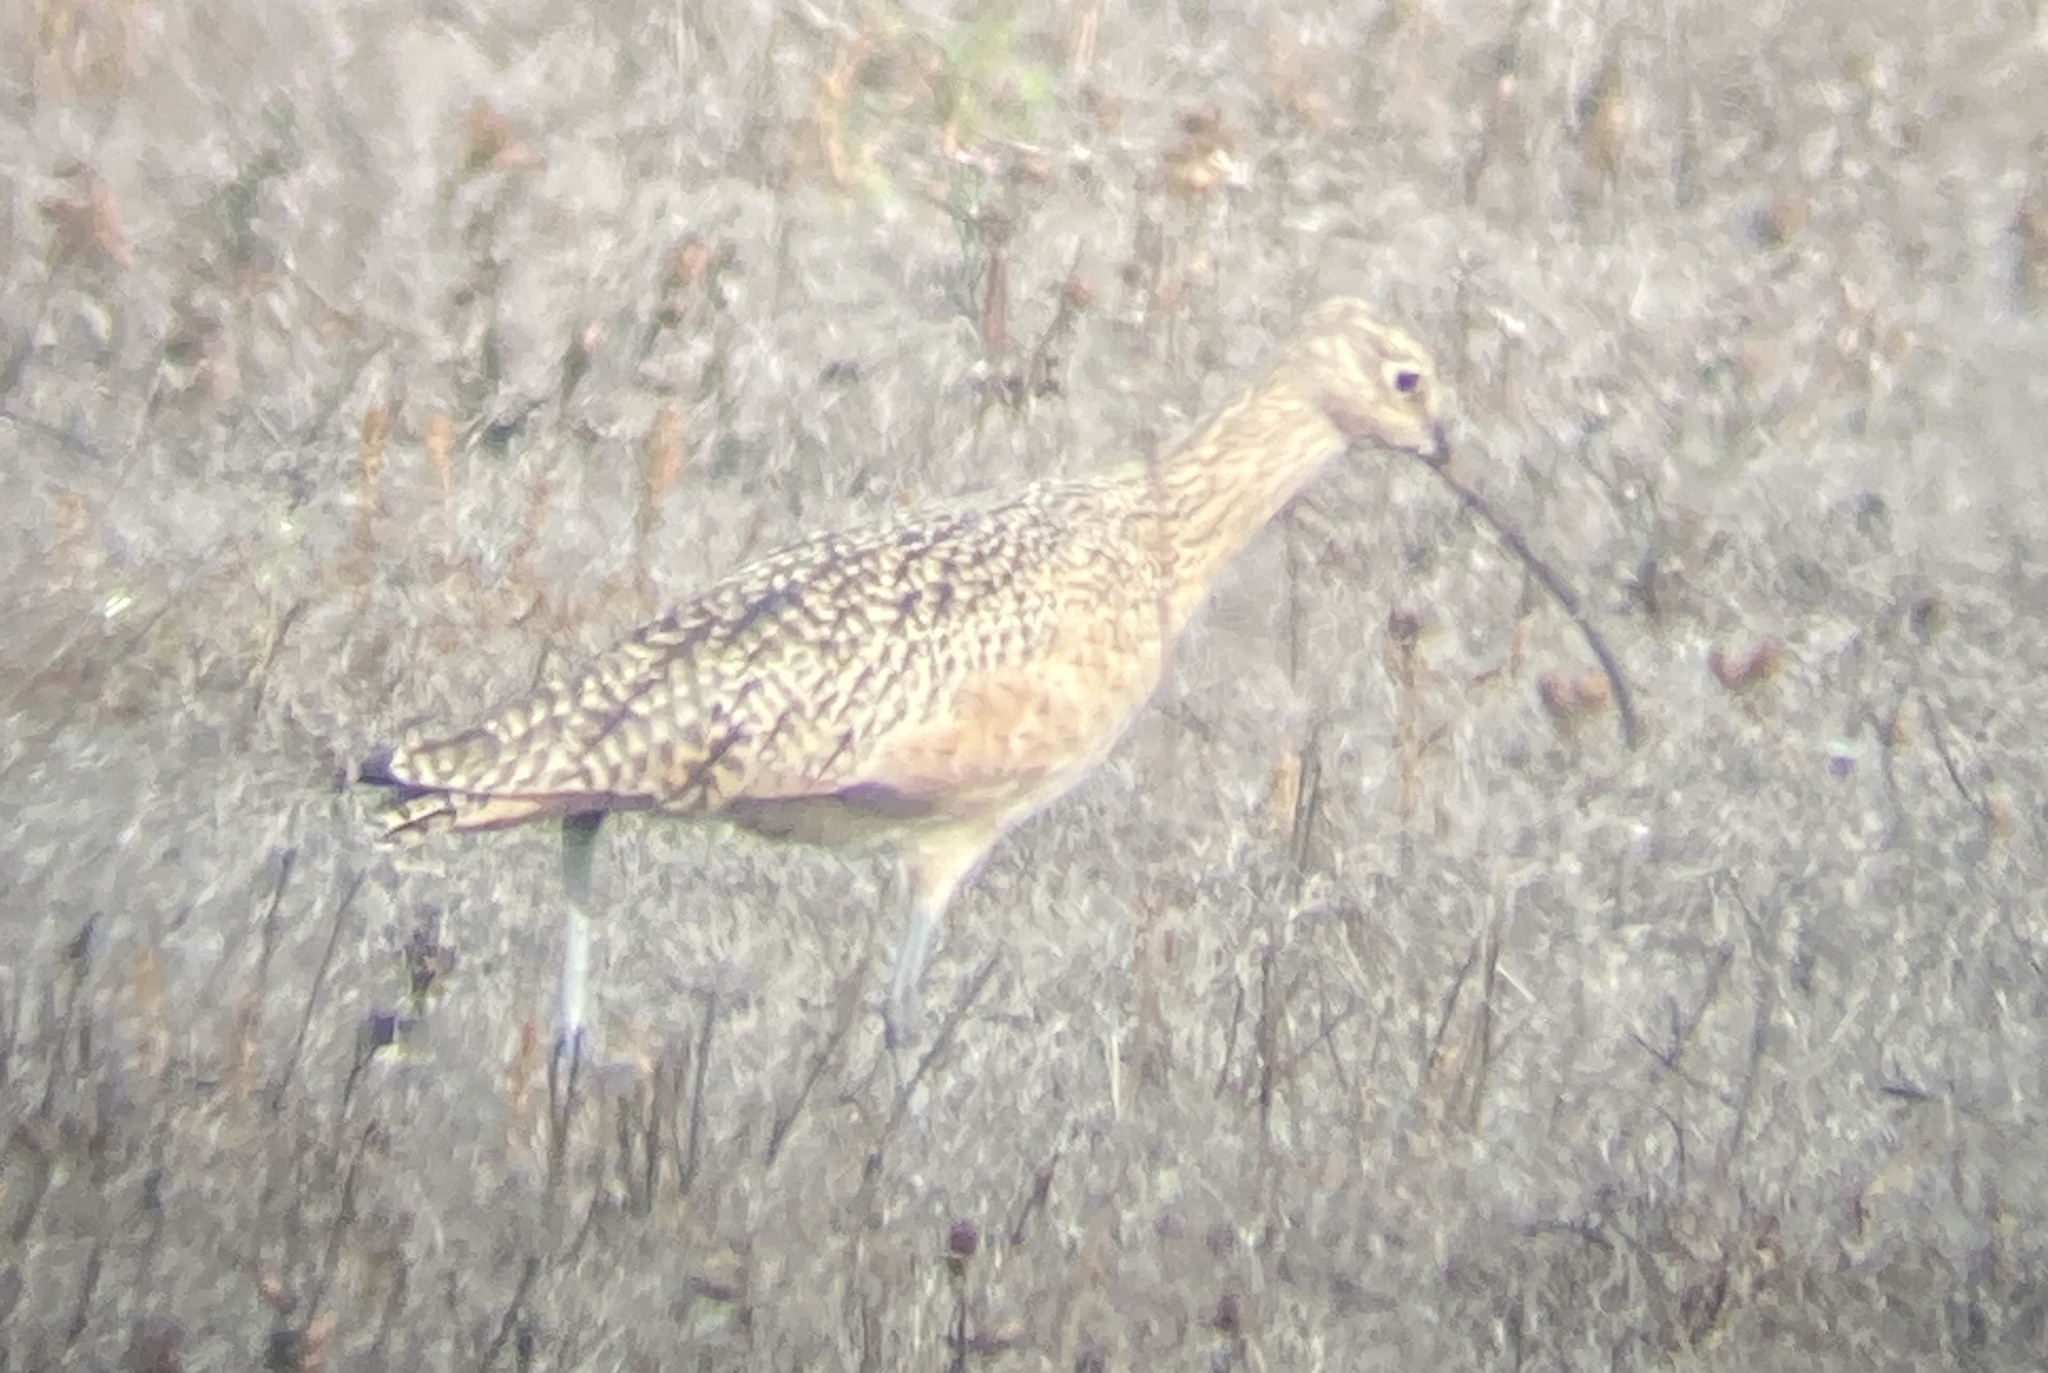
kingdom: Animalia
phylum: Chordata
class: Aves
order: Charadriiformes
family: Scolopacidae
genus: Numenius
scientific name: Numenius americanus
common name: Long-billed curlew
